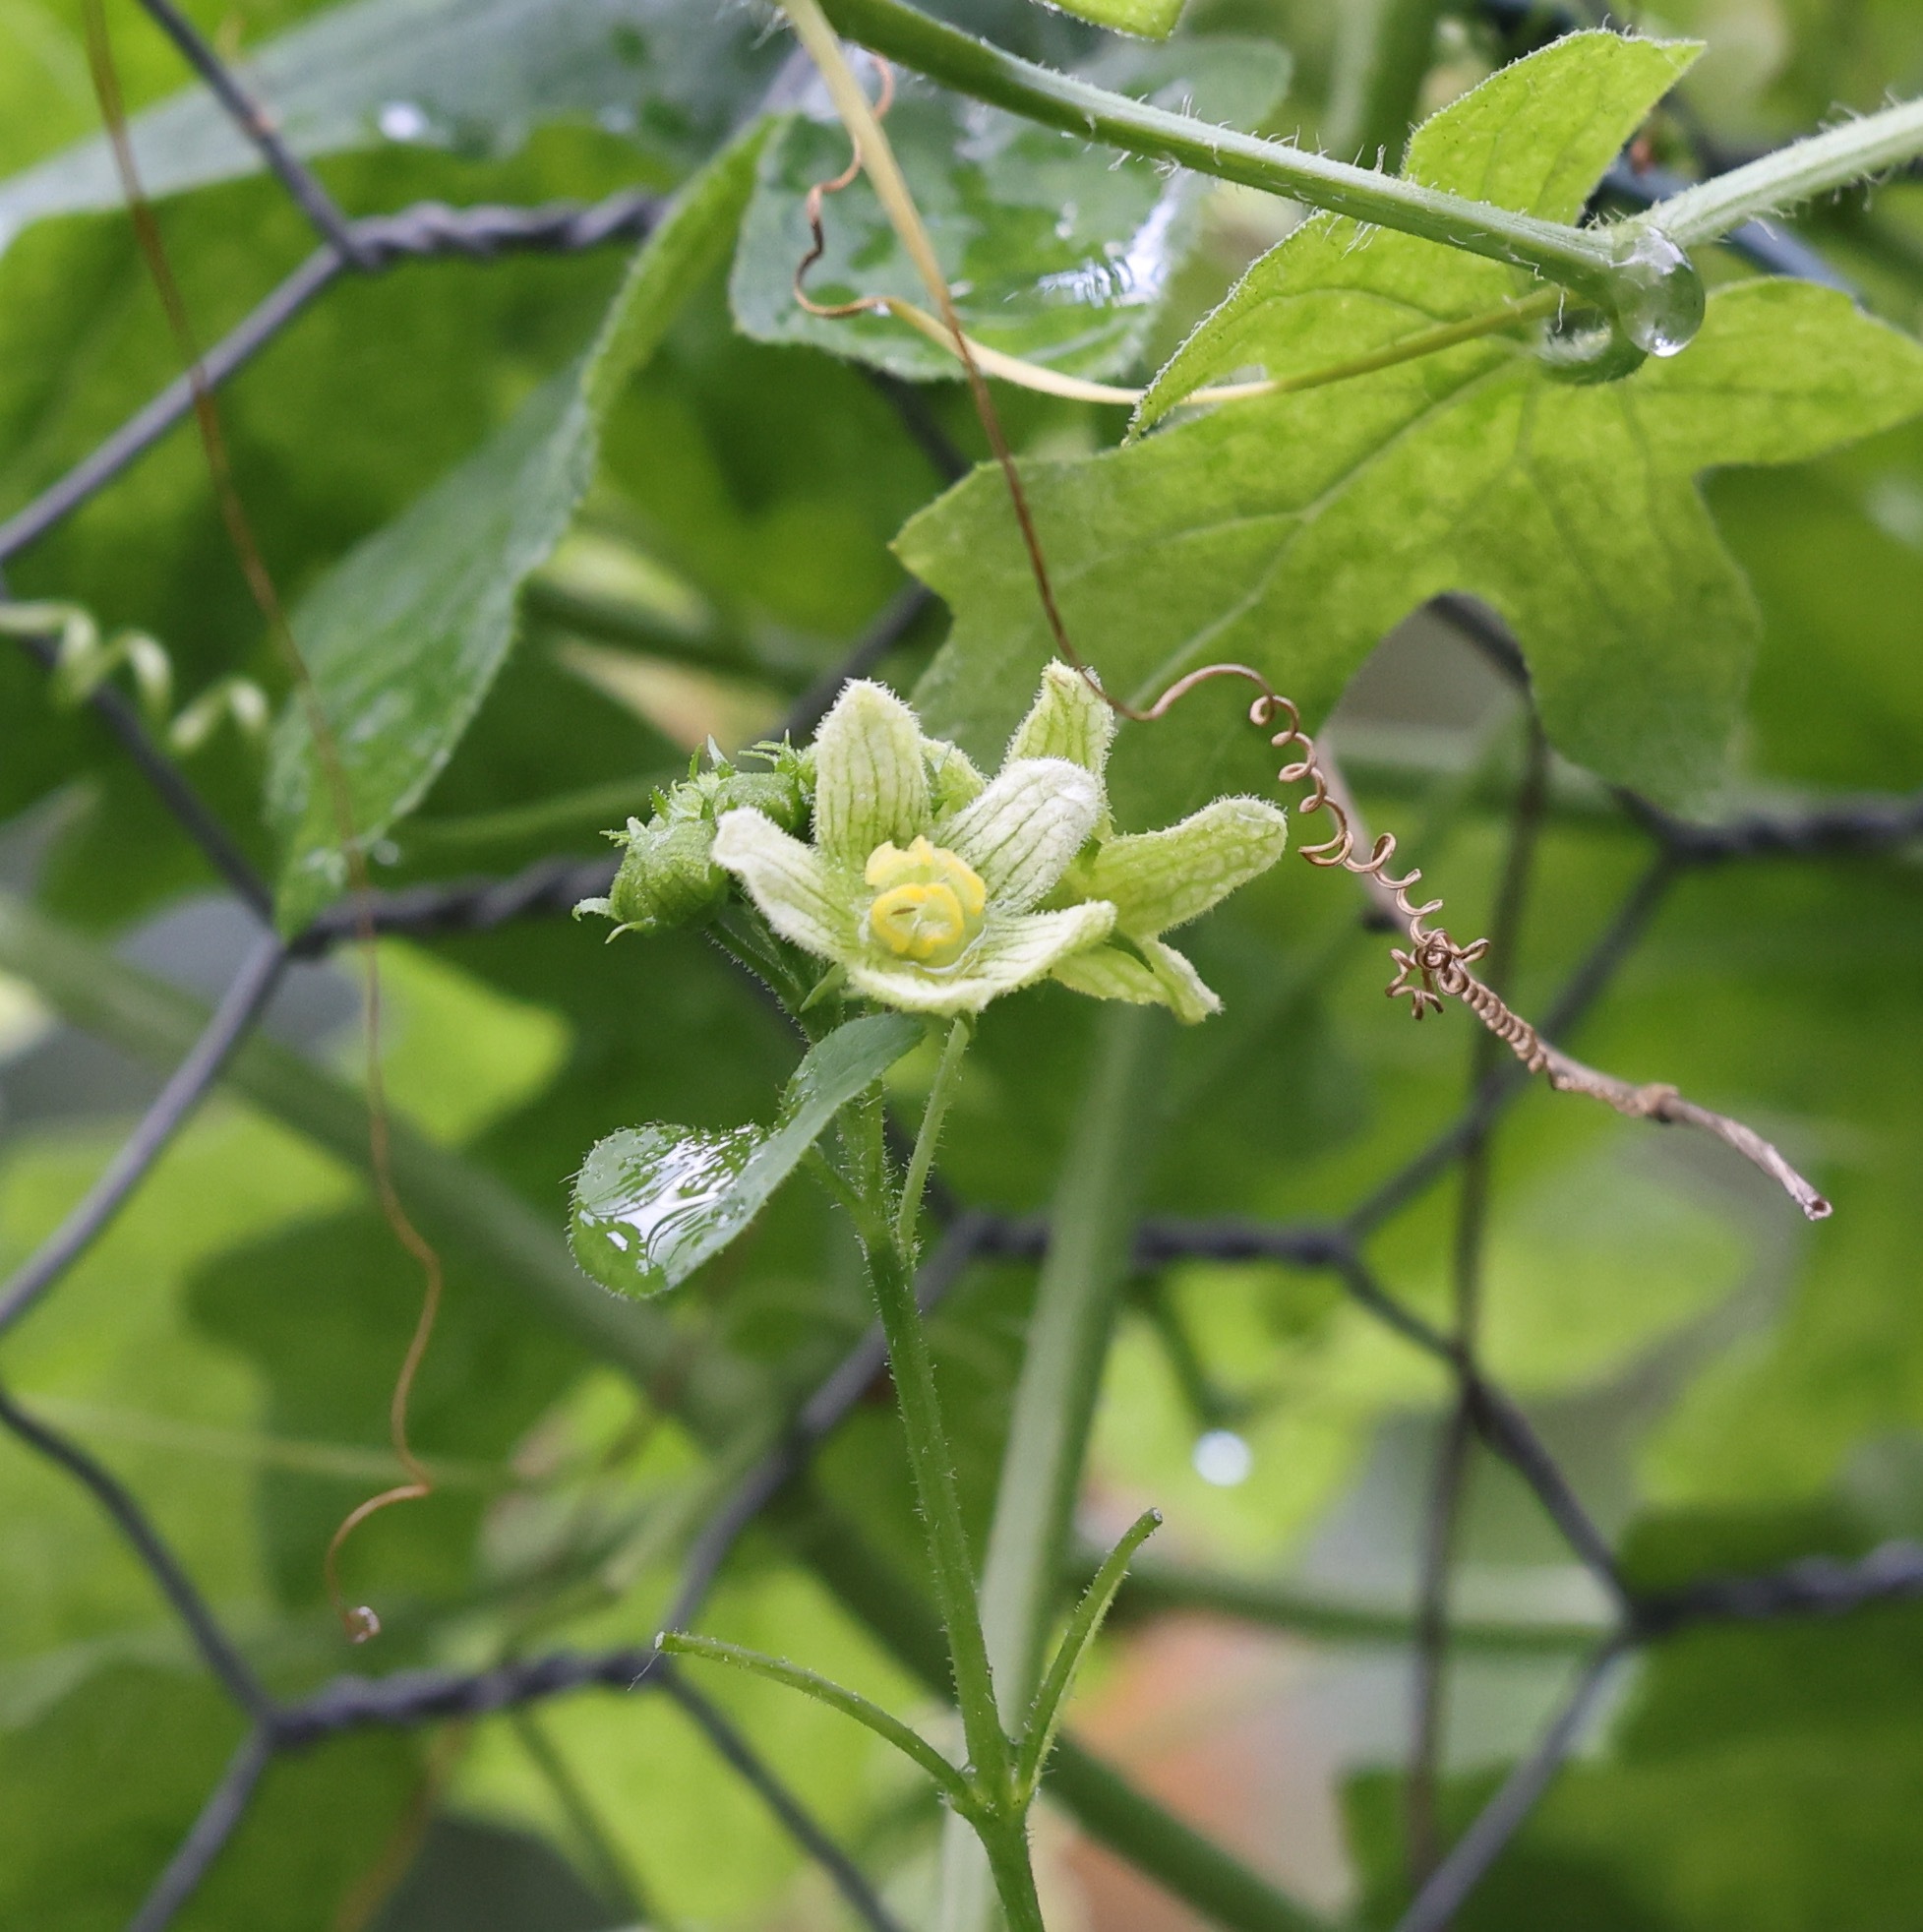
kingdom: Plantae
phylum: Tracheophyta
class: Magnoliopsida
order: Cucurbitales
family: Cucurbitaceae
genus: Bryonia
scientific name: Bryonia cretica
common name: Cretan bryony
